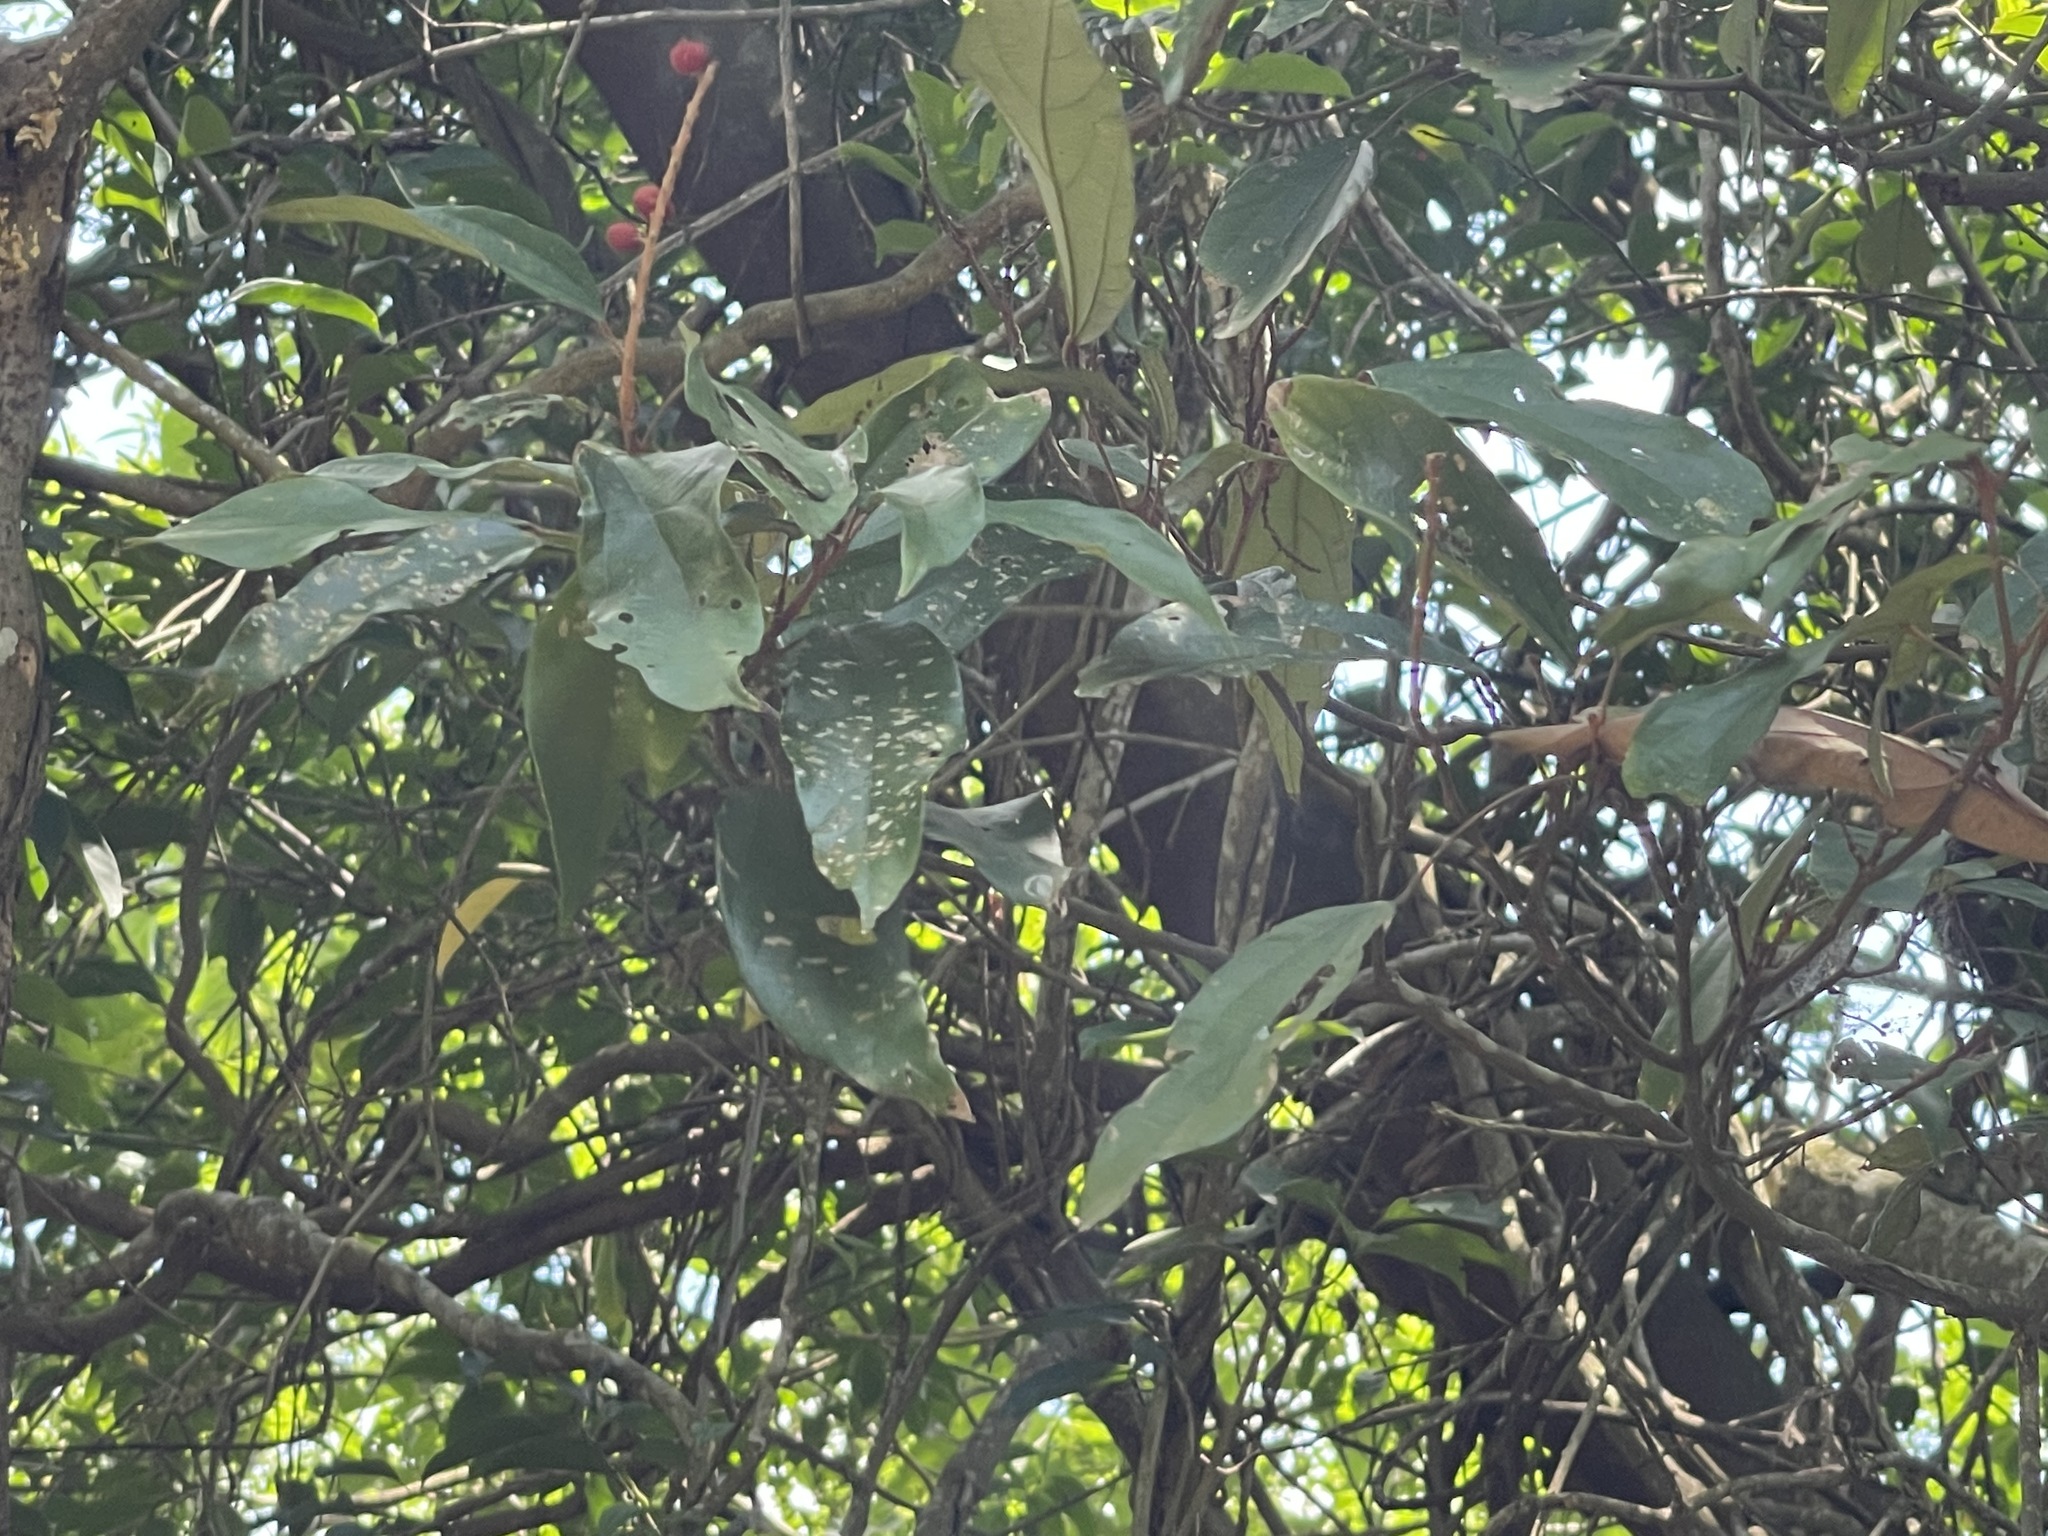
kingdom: Plantae
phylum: Tracheophyta
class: Magnoliopsida
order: Malpighiales
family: Euphorbiaceae
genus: Mallotus
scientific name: Mallotus philippensis
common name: Kamala tree
